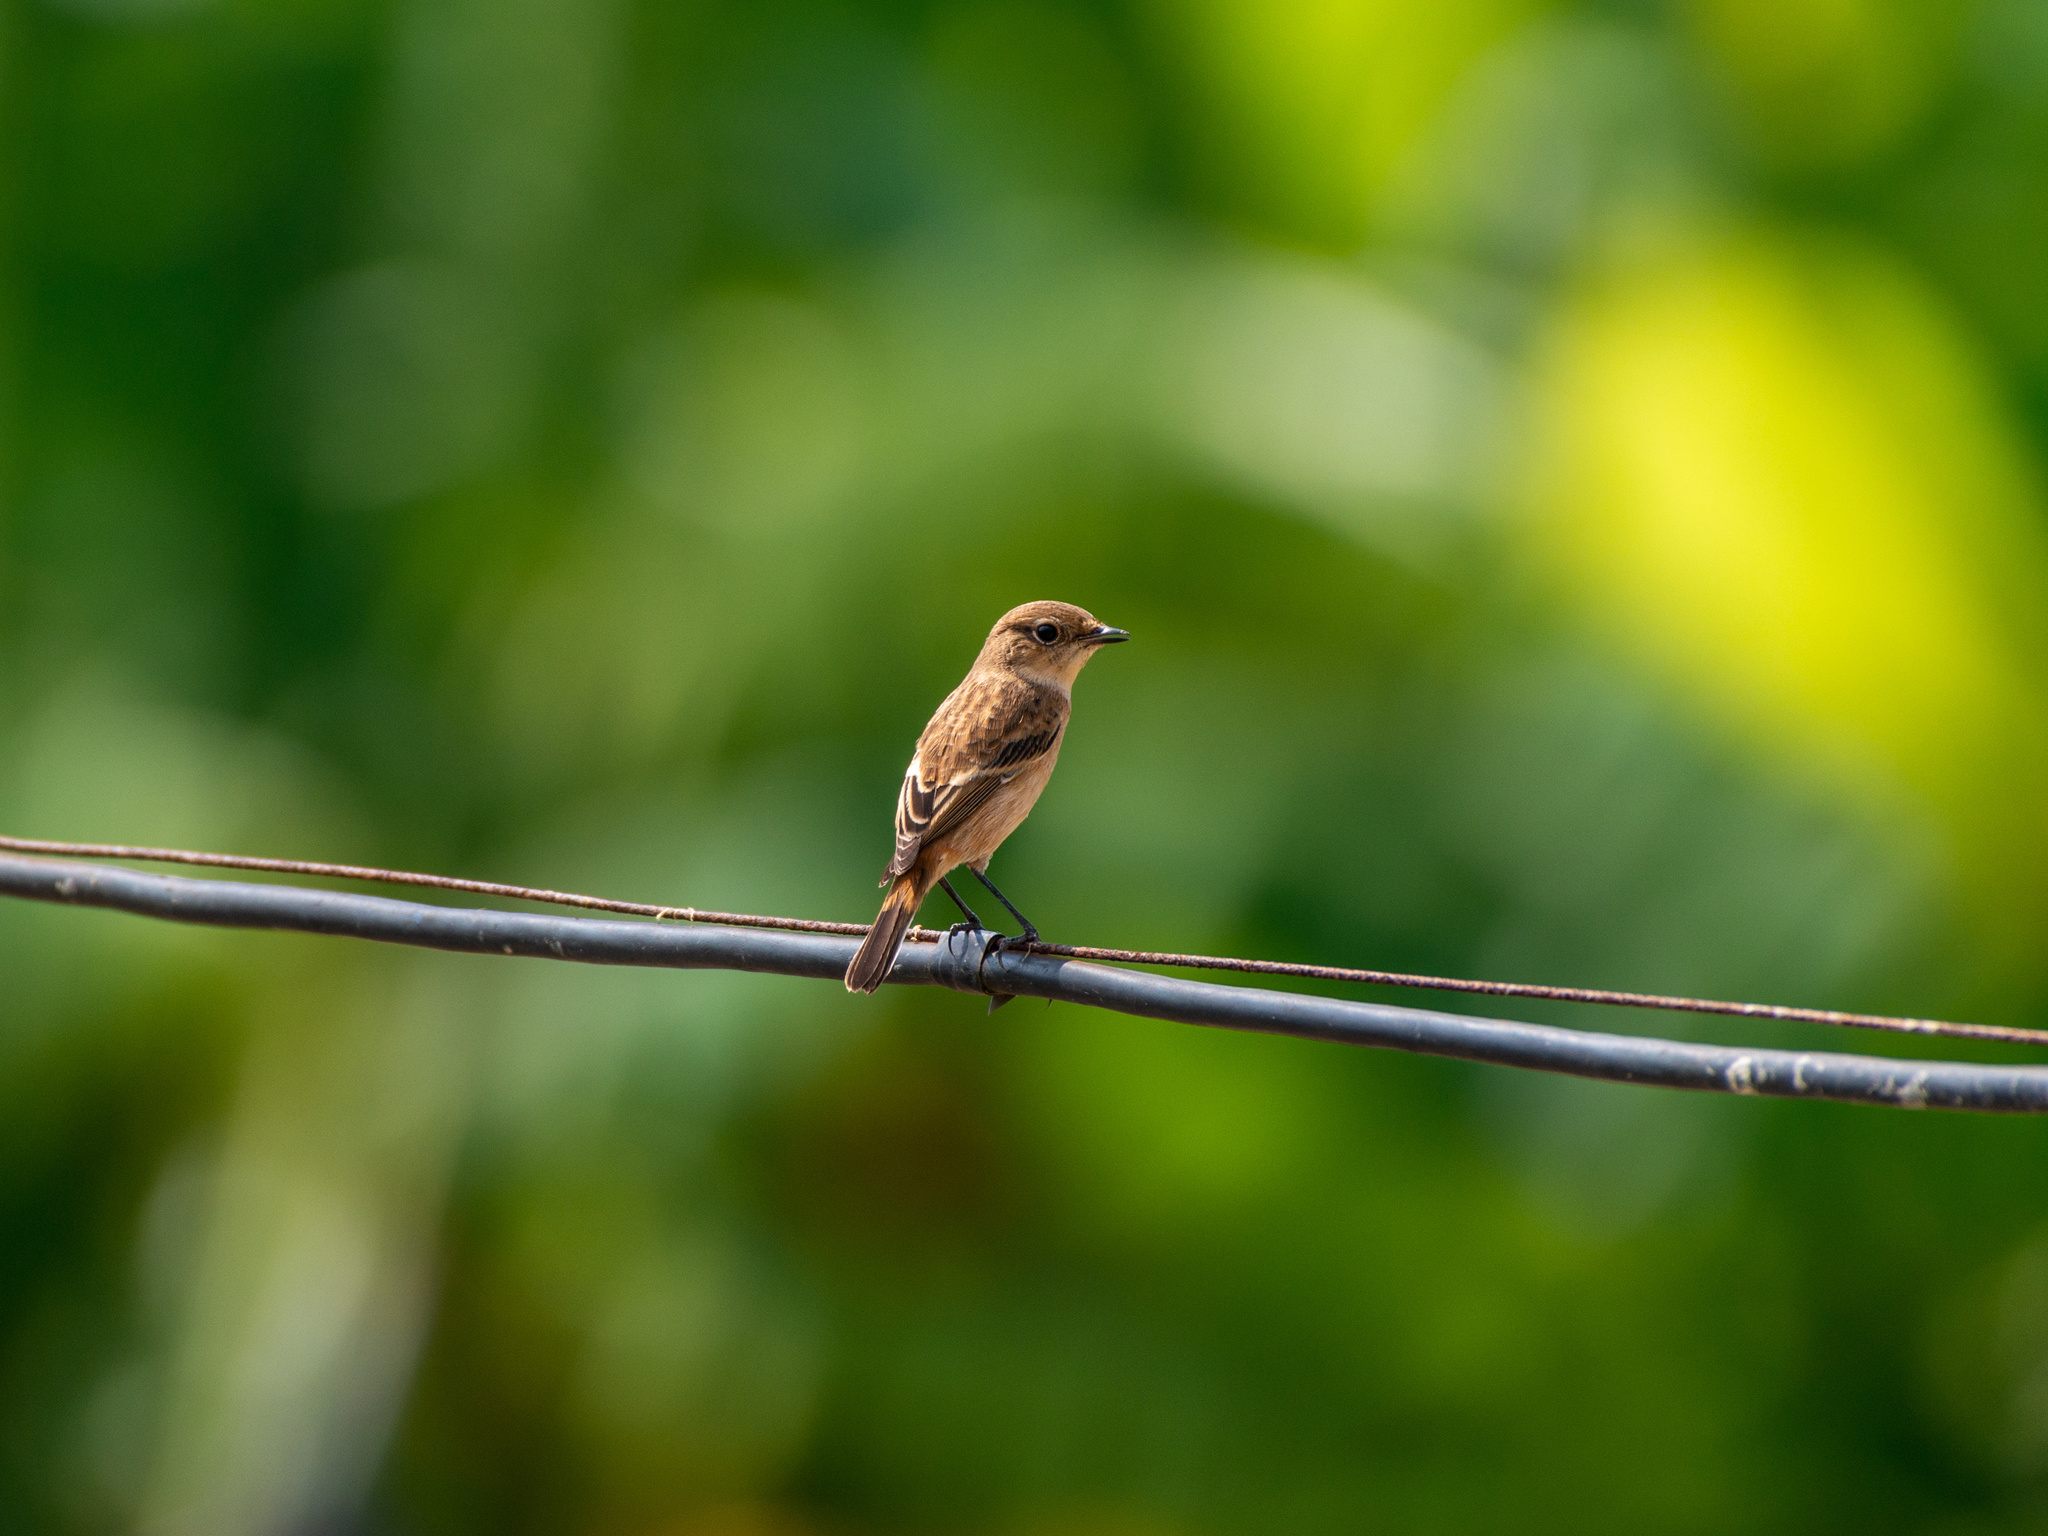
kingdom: Animalia
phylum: Chordata
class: Aves
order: Passeriformes
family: Muscicapidae
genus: Saxicola
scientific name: Saxicola maurus
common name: Siberian stonechat
